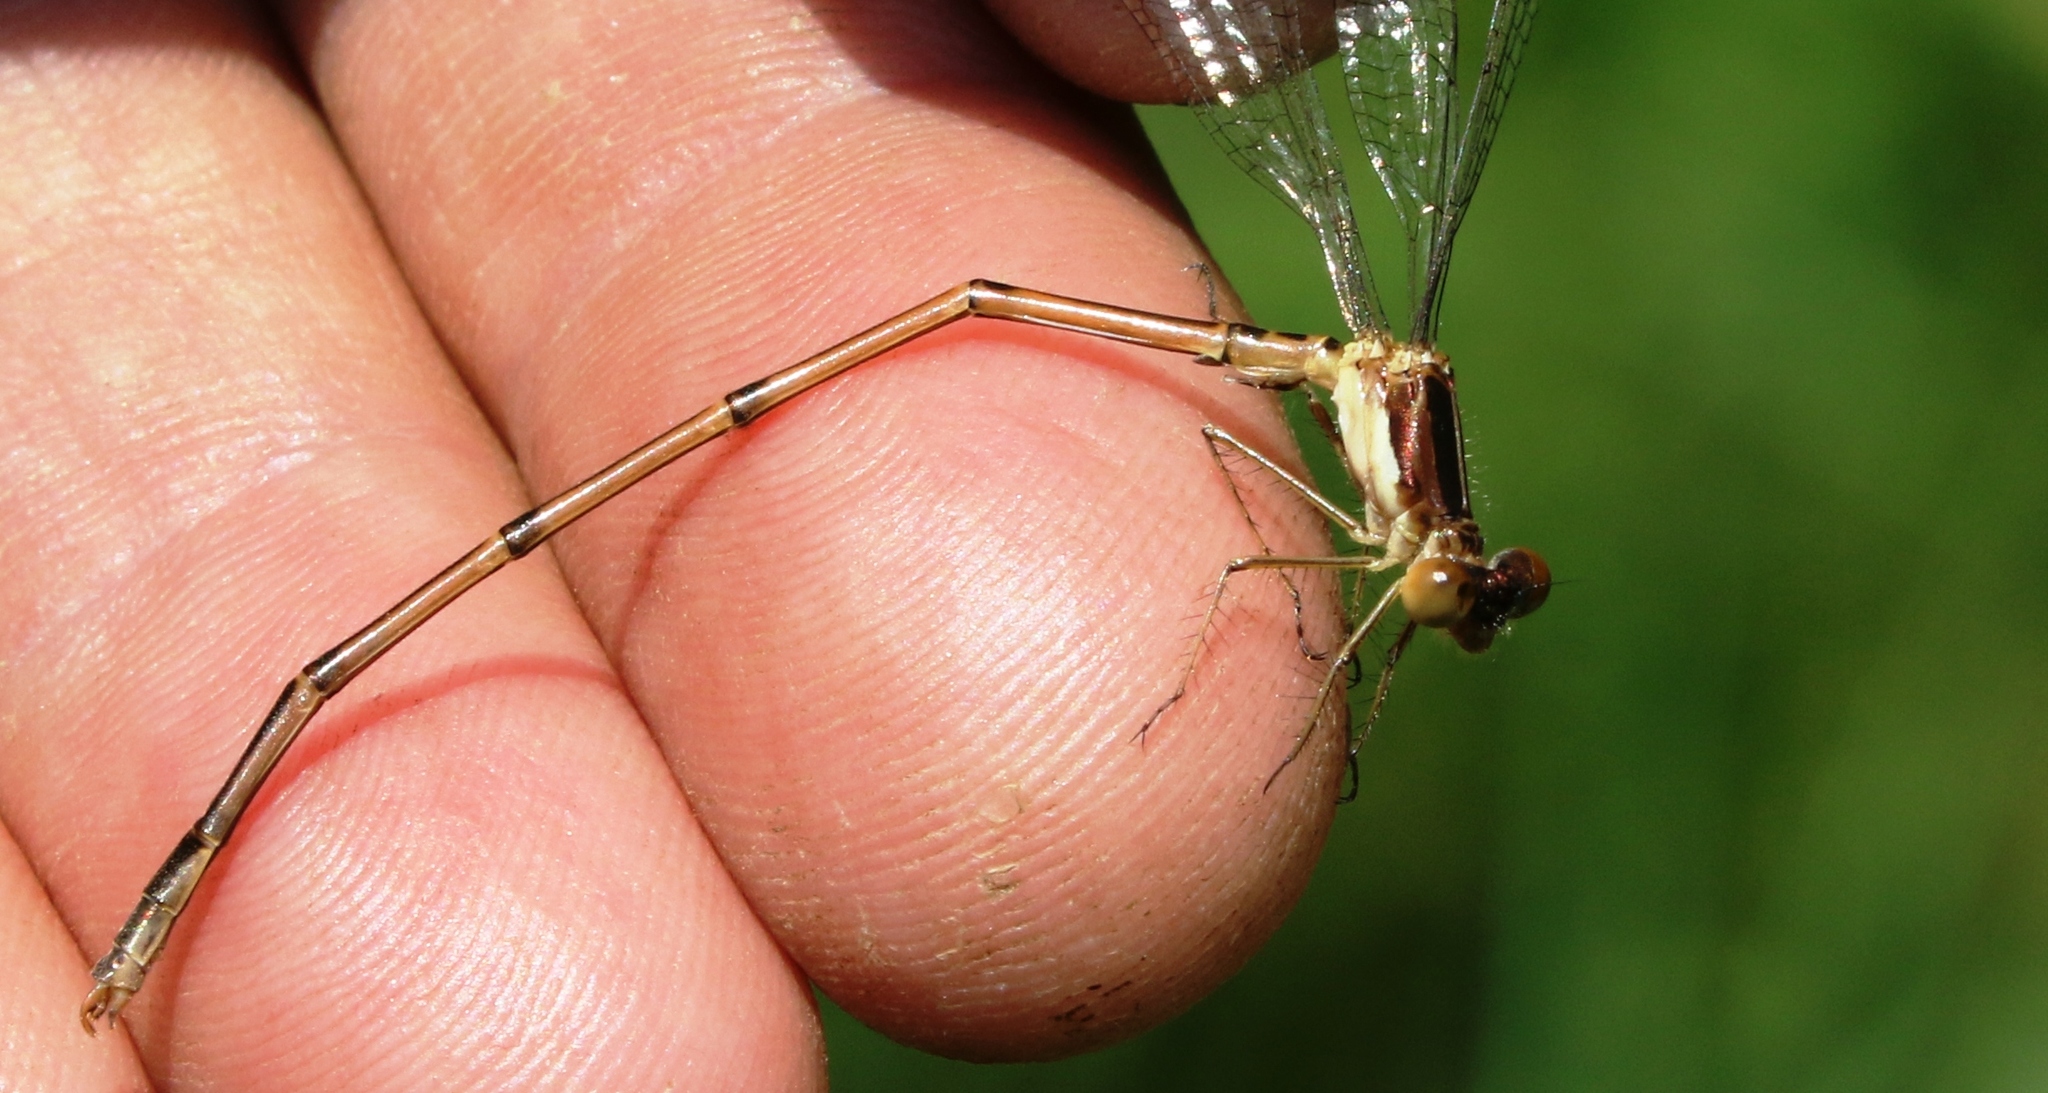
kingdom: Animalia
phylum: Arthropoda
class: Insecta
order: Odonata
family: Lestidae
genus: Lestes
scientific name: Lestes rectangularis
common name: Slender spreadwing
